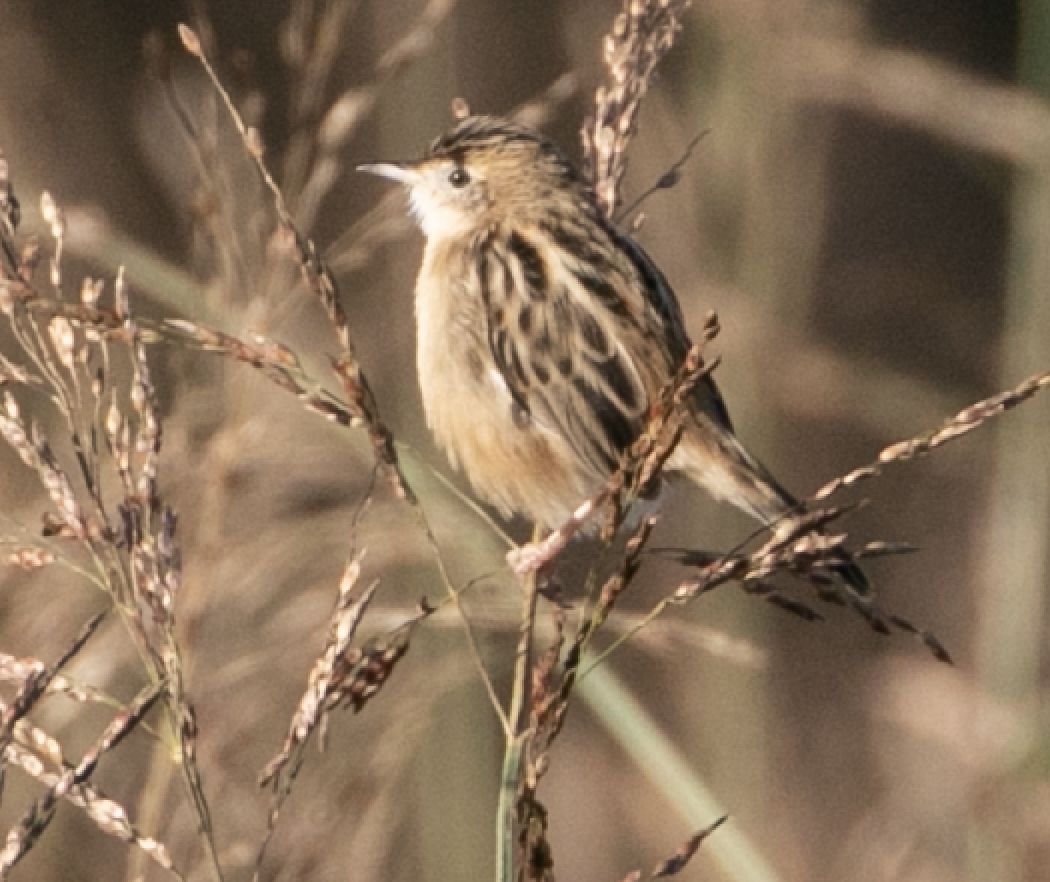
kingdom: Animalia
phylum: Chordata
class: Aves
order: Passeriformes
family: Cisticolidae
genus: Cisticola
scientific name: Cisticola juncidis
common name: Zitting cisticola
